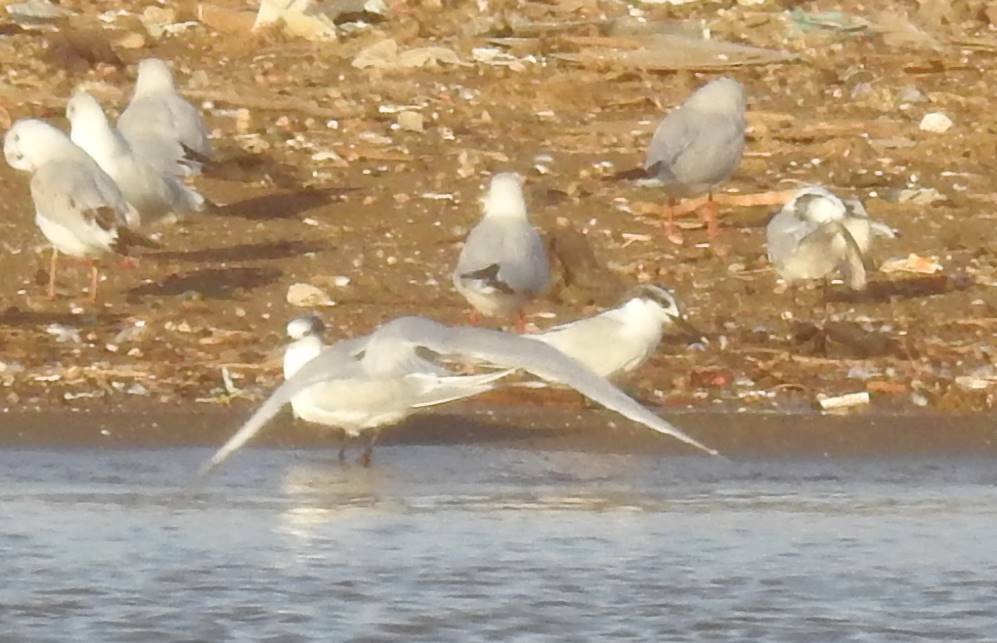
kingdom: Animalia
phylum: Chordata
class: Aves
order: Charadriiformes
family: Laridae
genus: Thalasseus
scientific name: Thalasseus sandvicensis
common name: Sandwich tern
